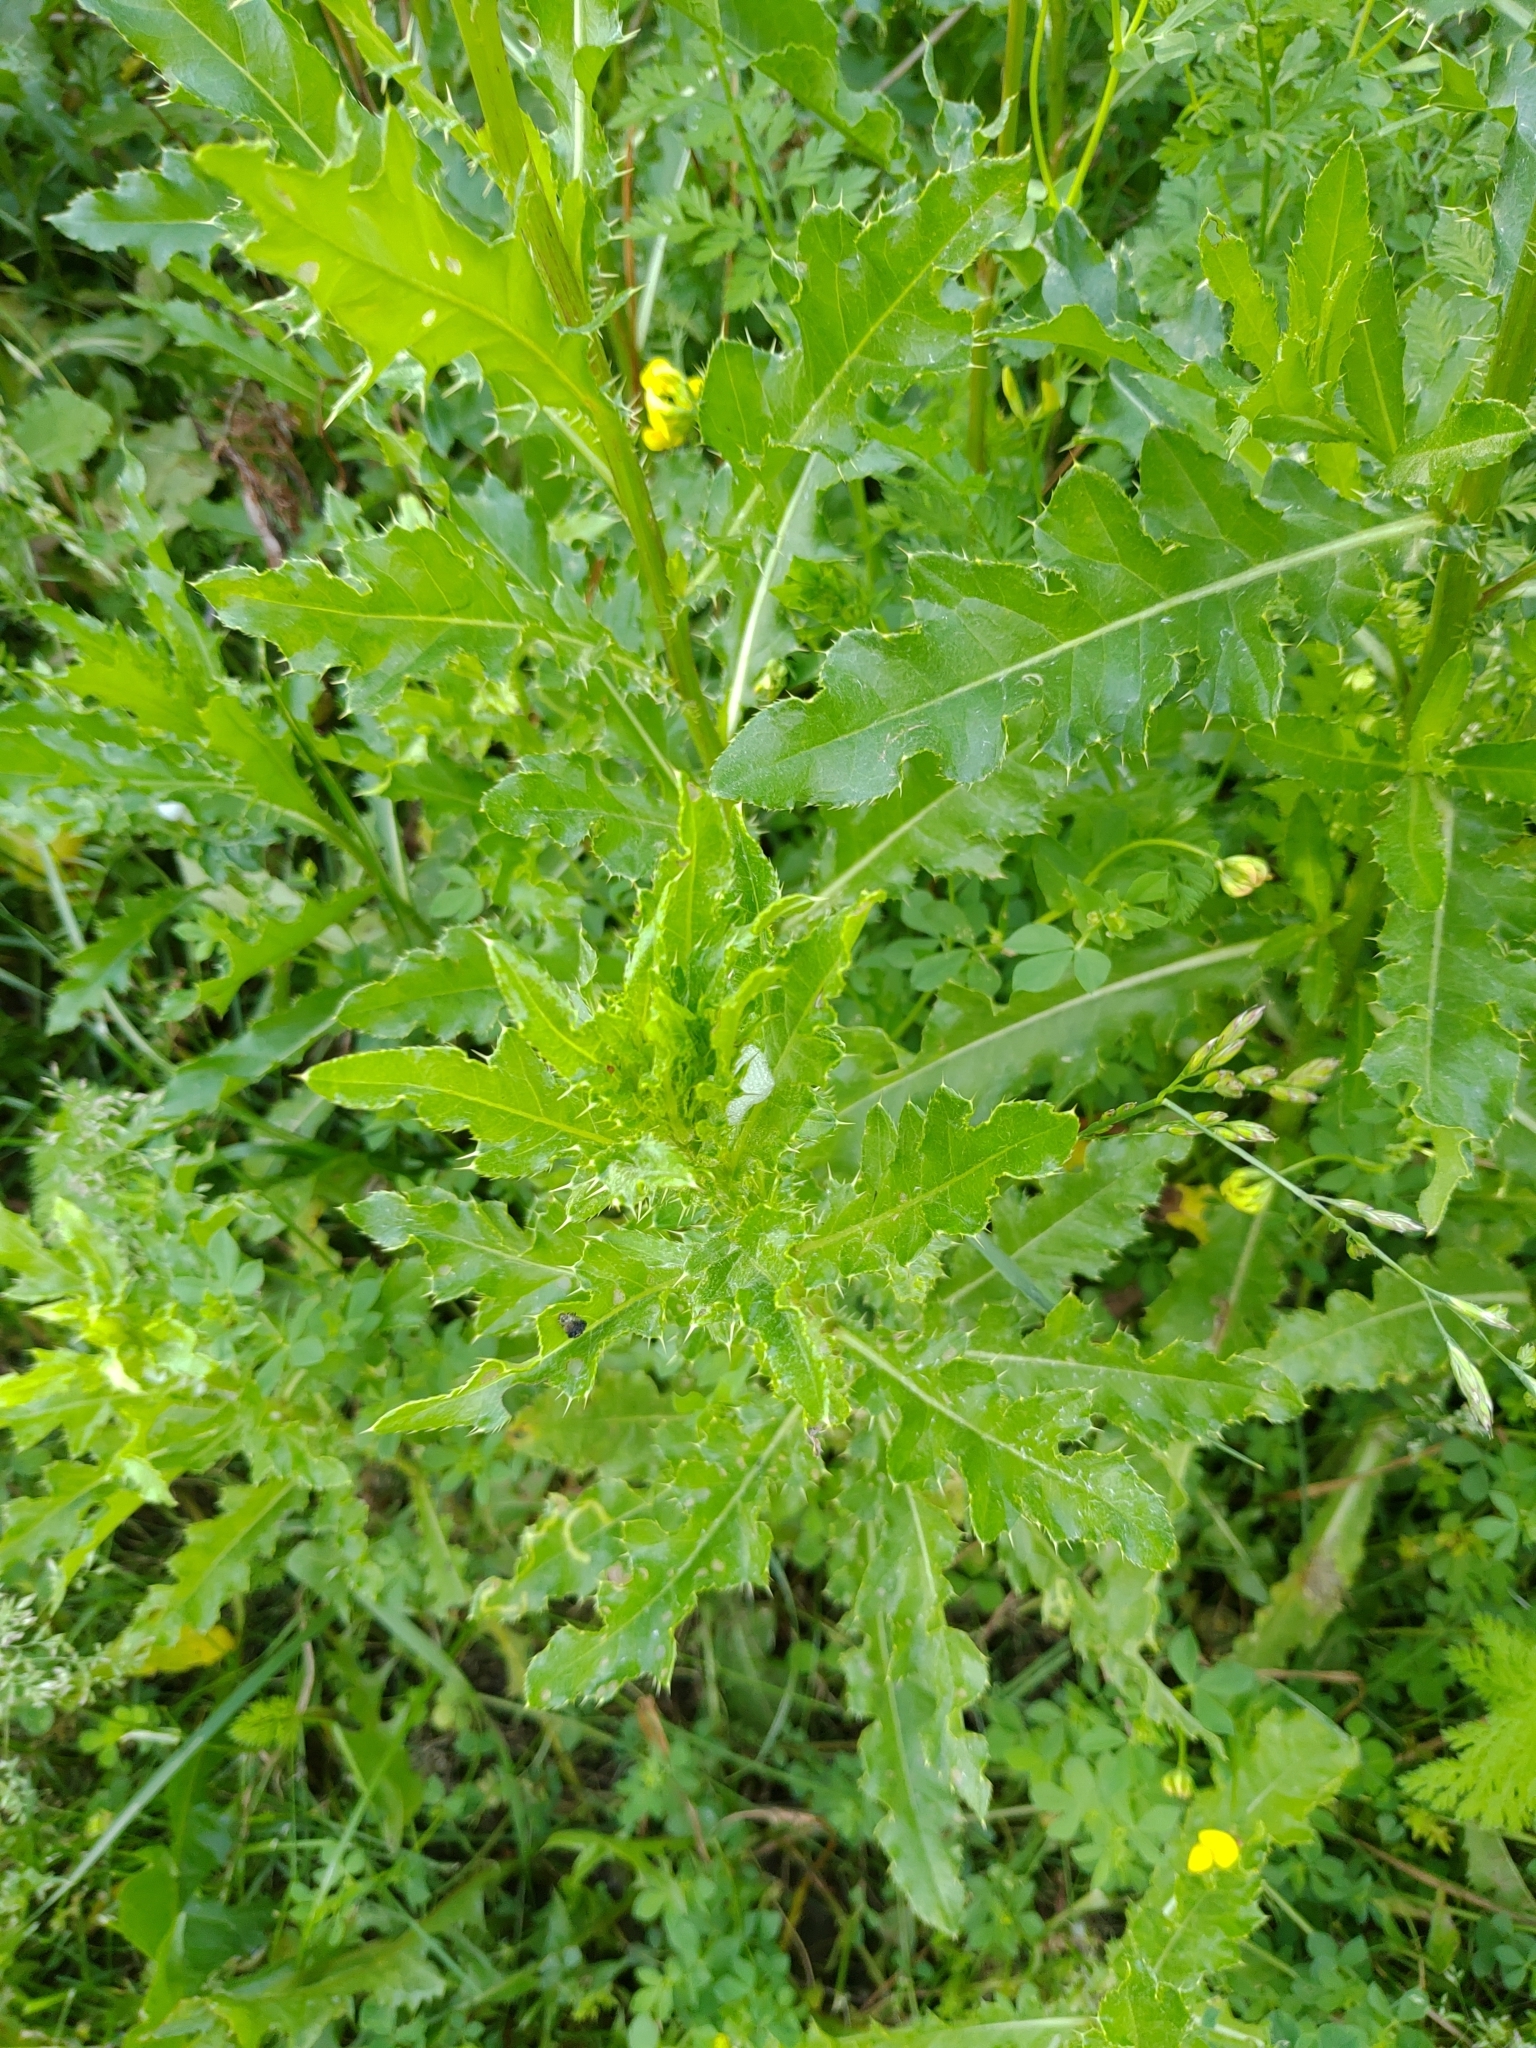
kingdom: Plantae
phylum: Tracheophyta
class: Magnoliopsida
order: Asterales
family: Asteraceae
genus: Cirsium
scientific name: Cirsium arvense
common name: Creeping thistle
